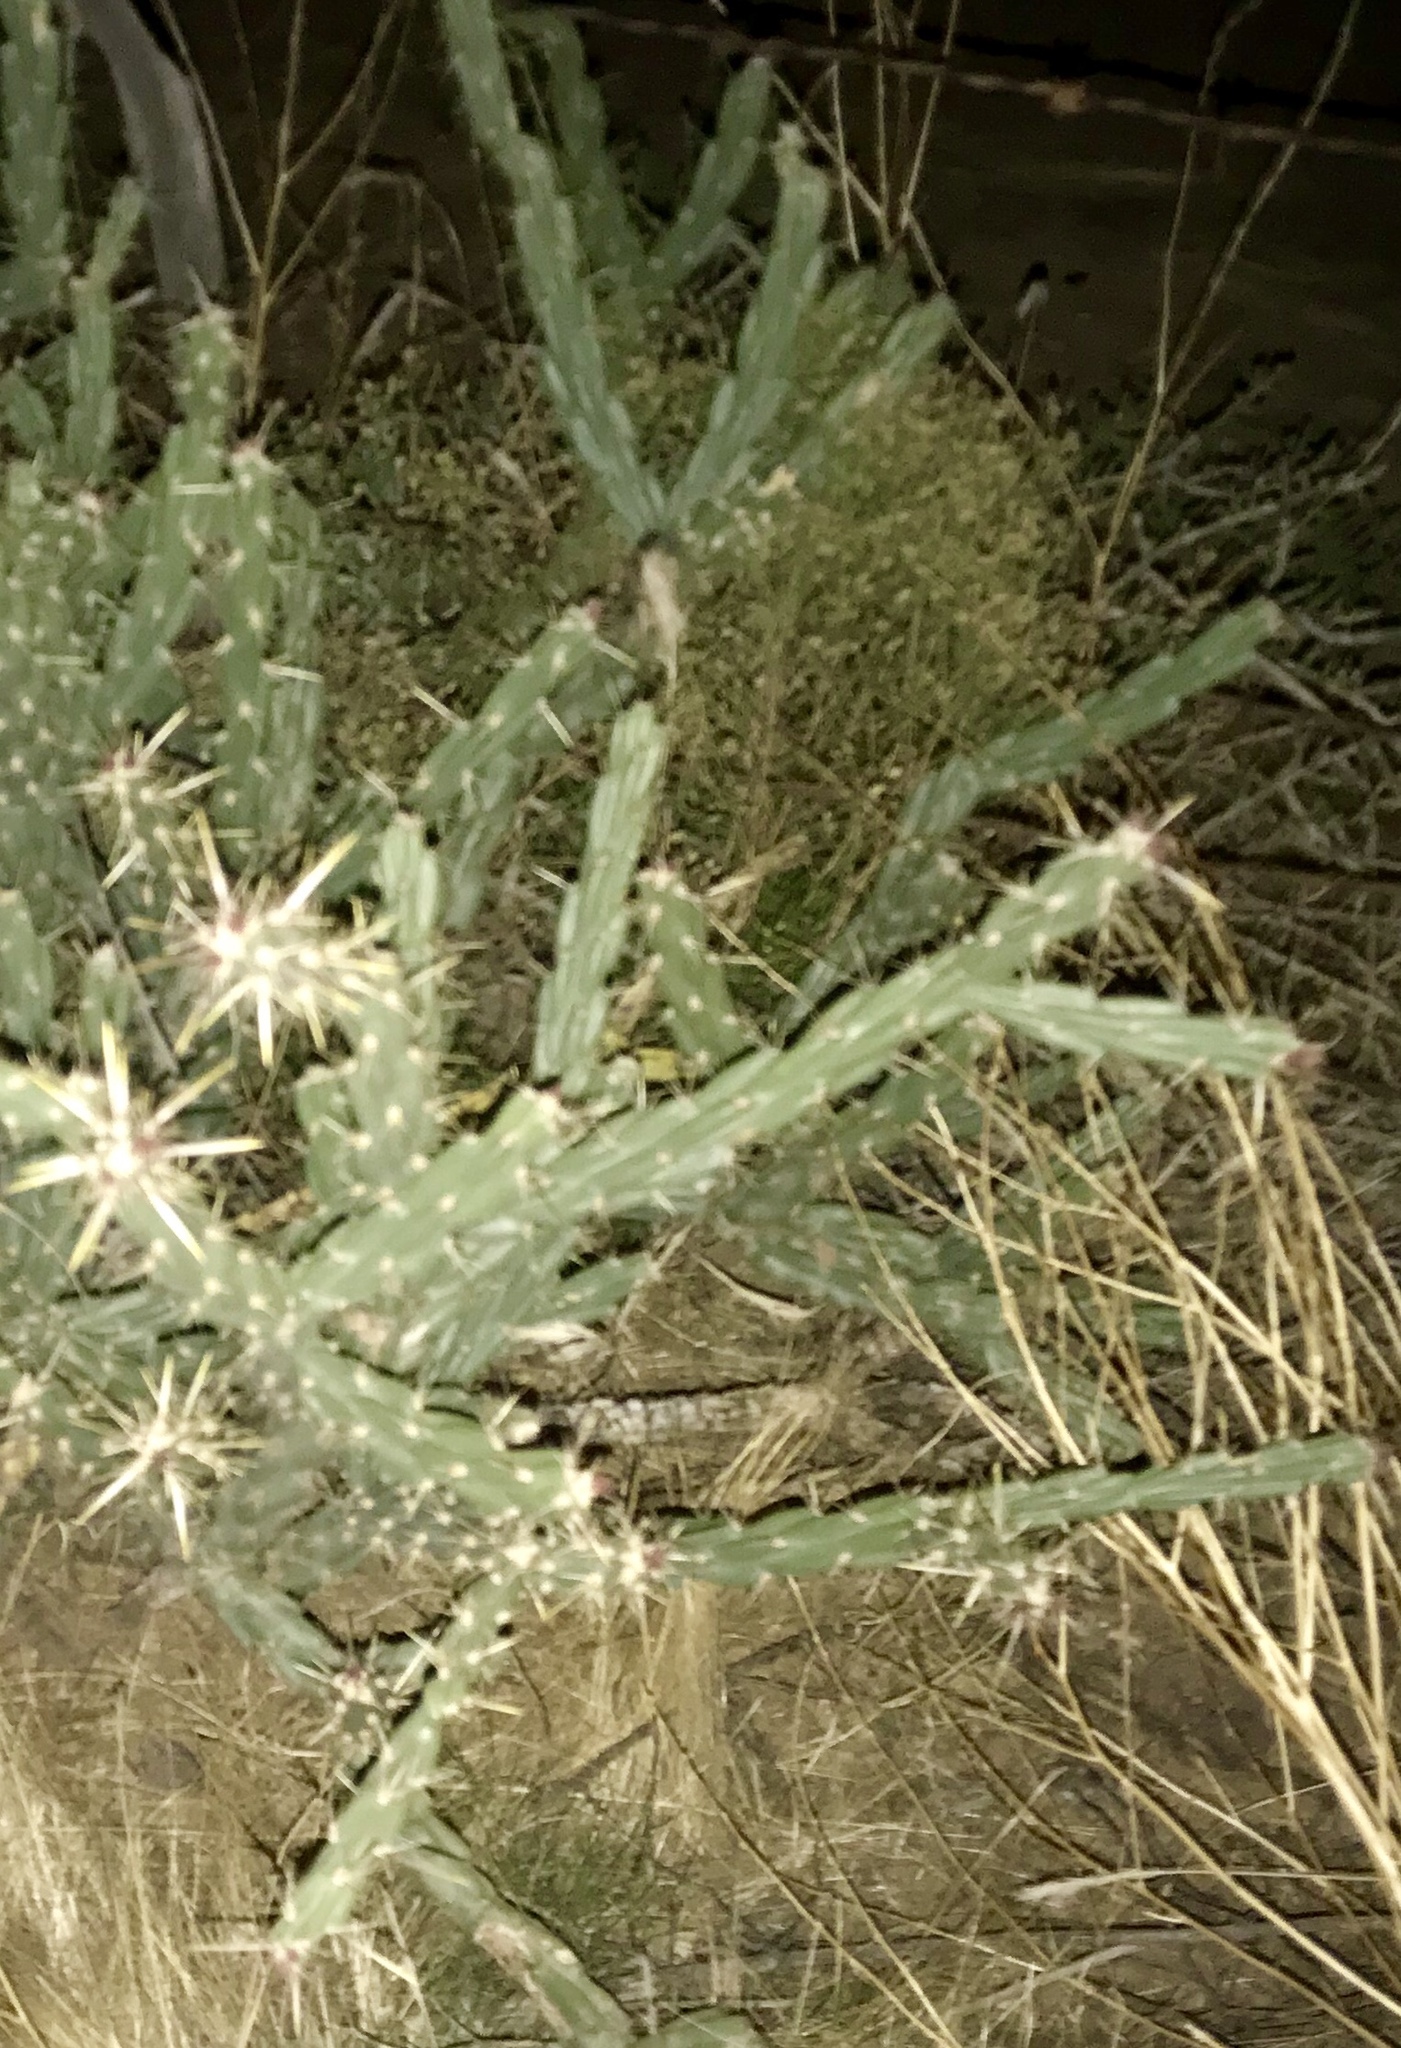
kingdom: Plantae
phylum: Tracheophyta
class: Magnoliopsida
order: Caryophyllales
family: Cactaceae
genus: Cylindropuntia
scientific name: Cylindropuntia acanthocarpa
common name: Buckhorn cholla
